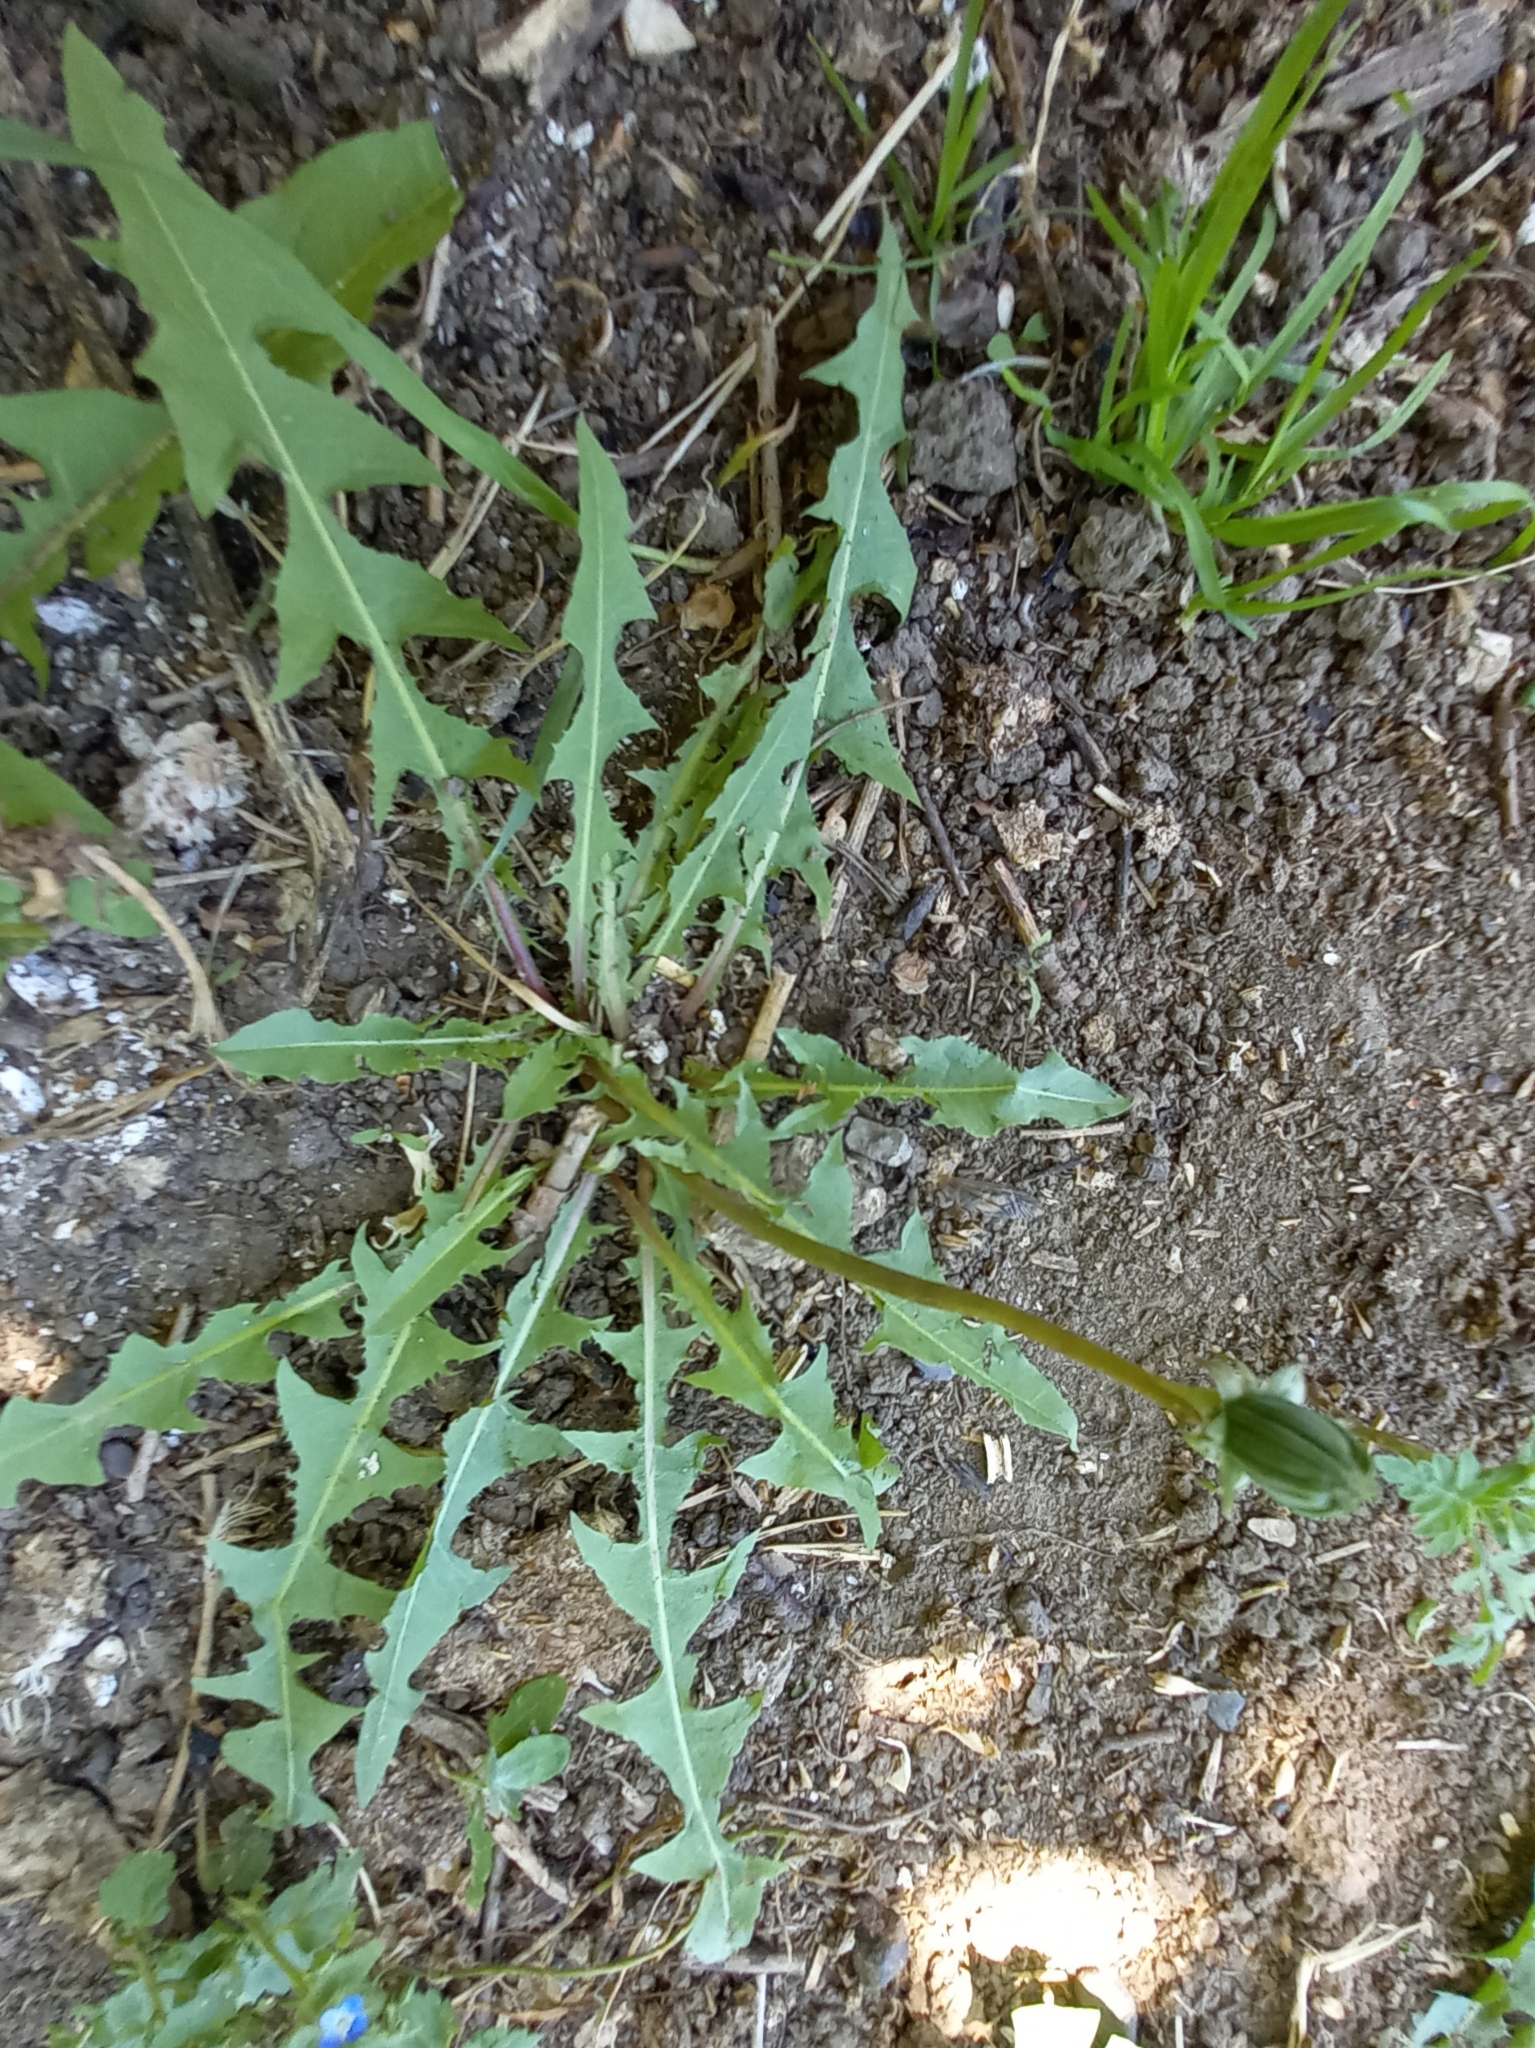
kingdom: Plantae
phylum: Tracheophyta
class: Magnoliopsida
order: Asterales
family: Asteraceae
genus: Taraxacum
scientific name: Taraxacum officinale
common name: Common dandelion
